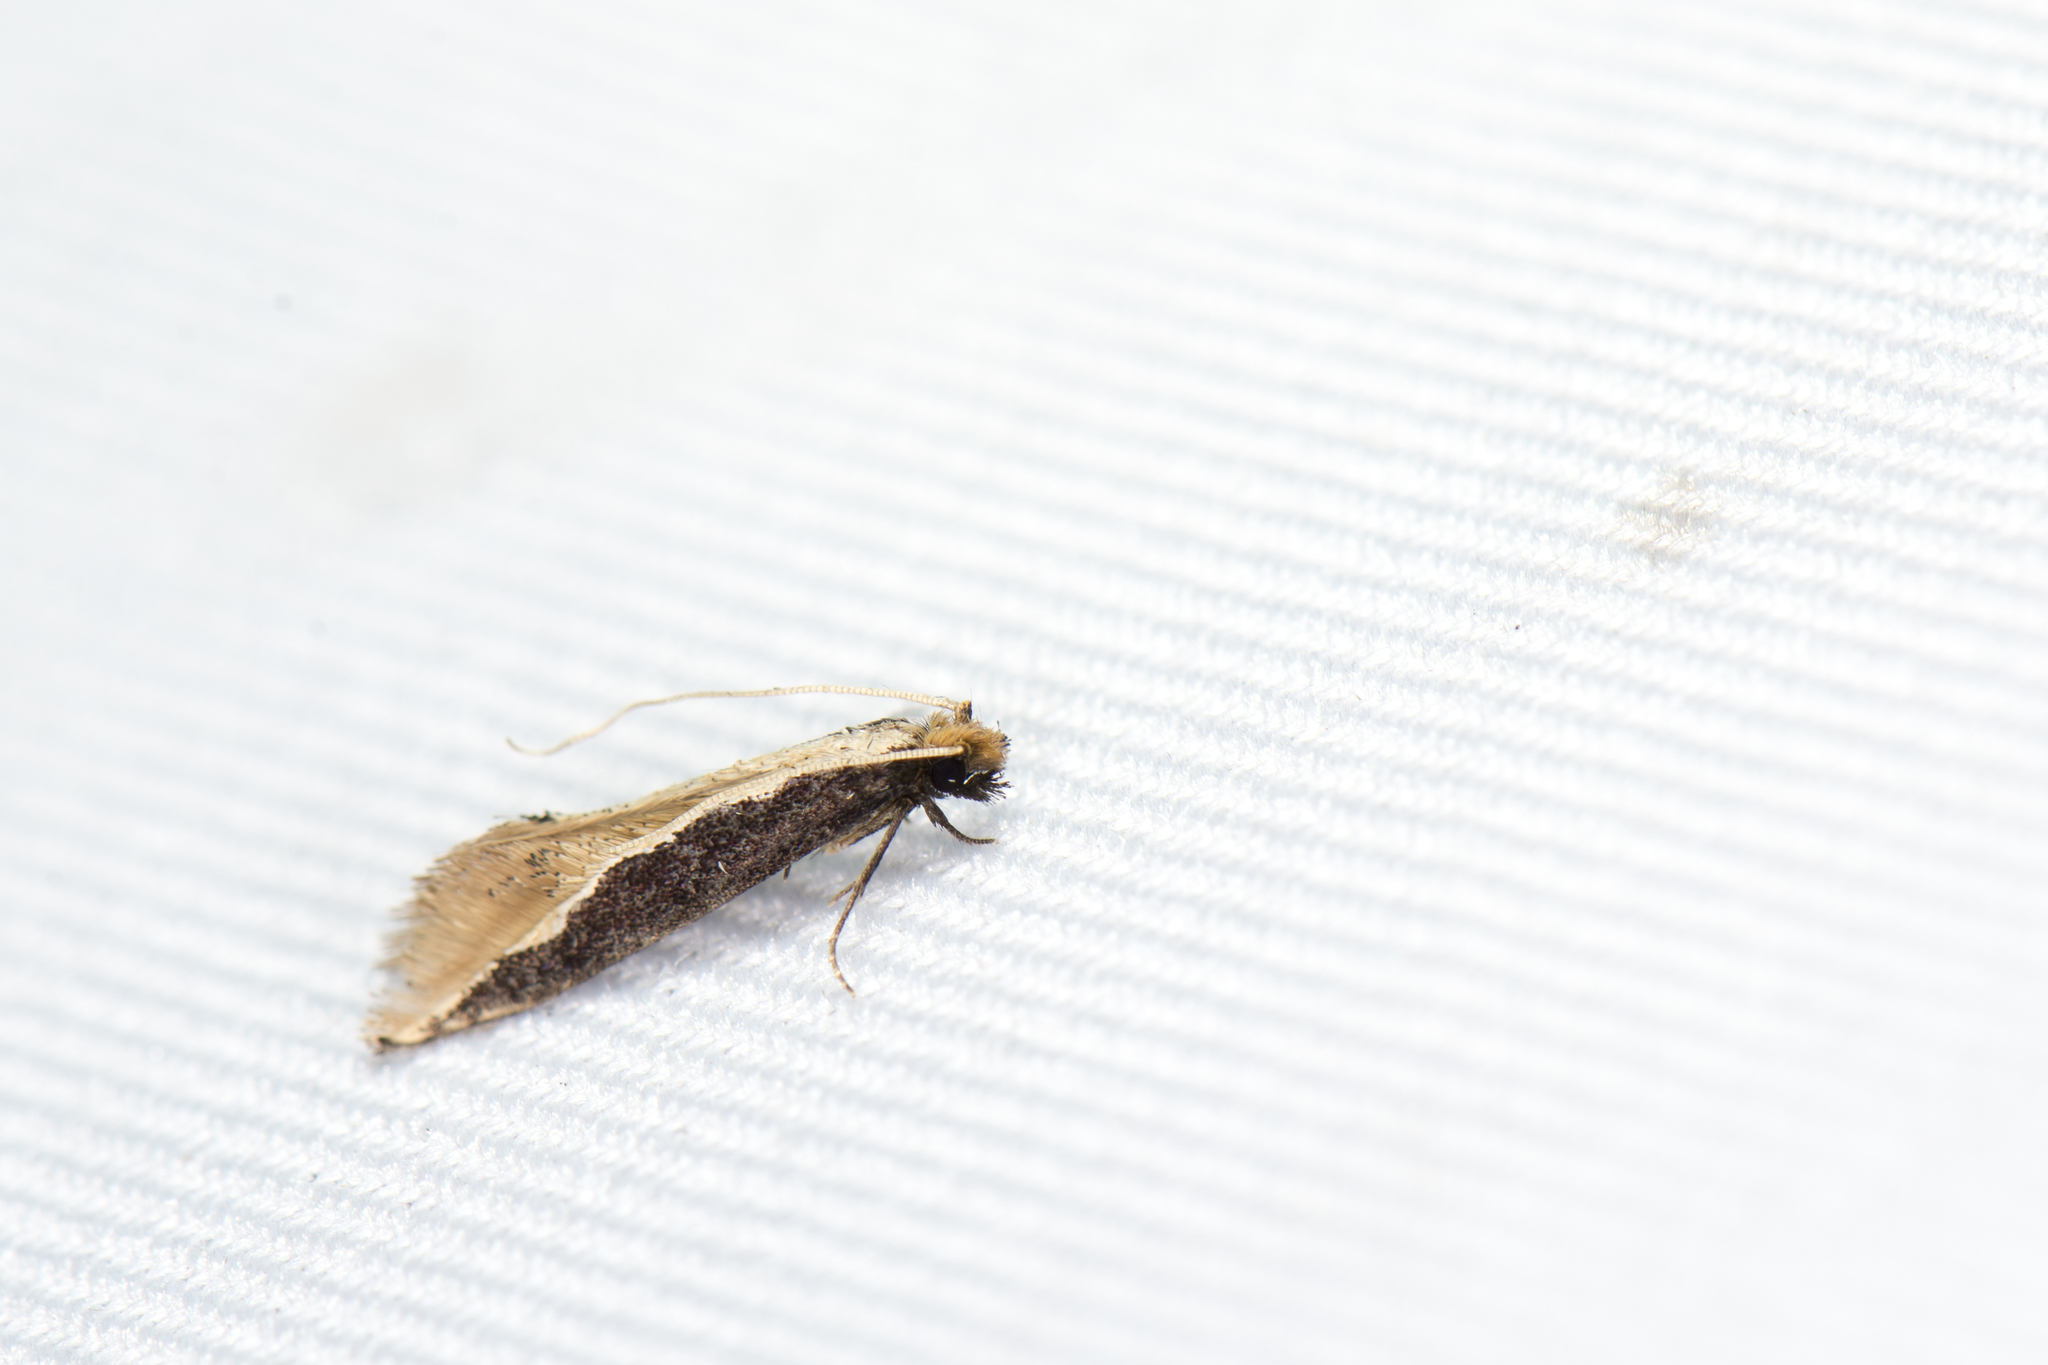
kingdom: Animalia
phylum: Arthropoda
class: Insecta
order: Lepidoptera
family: Tineidae
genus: Pyloetis
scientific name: Pyloetis mimosae
